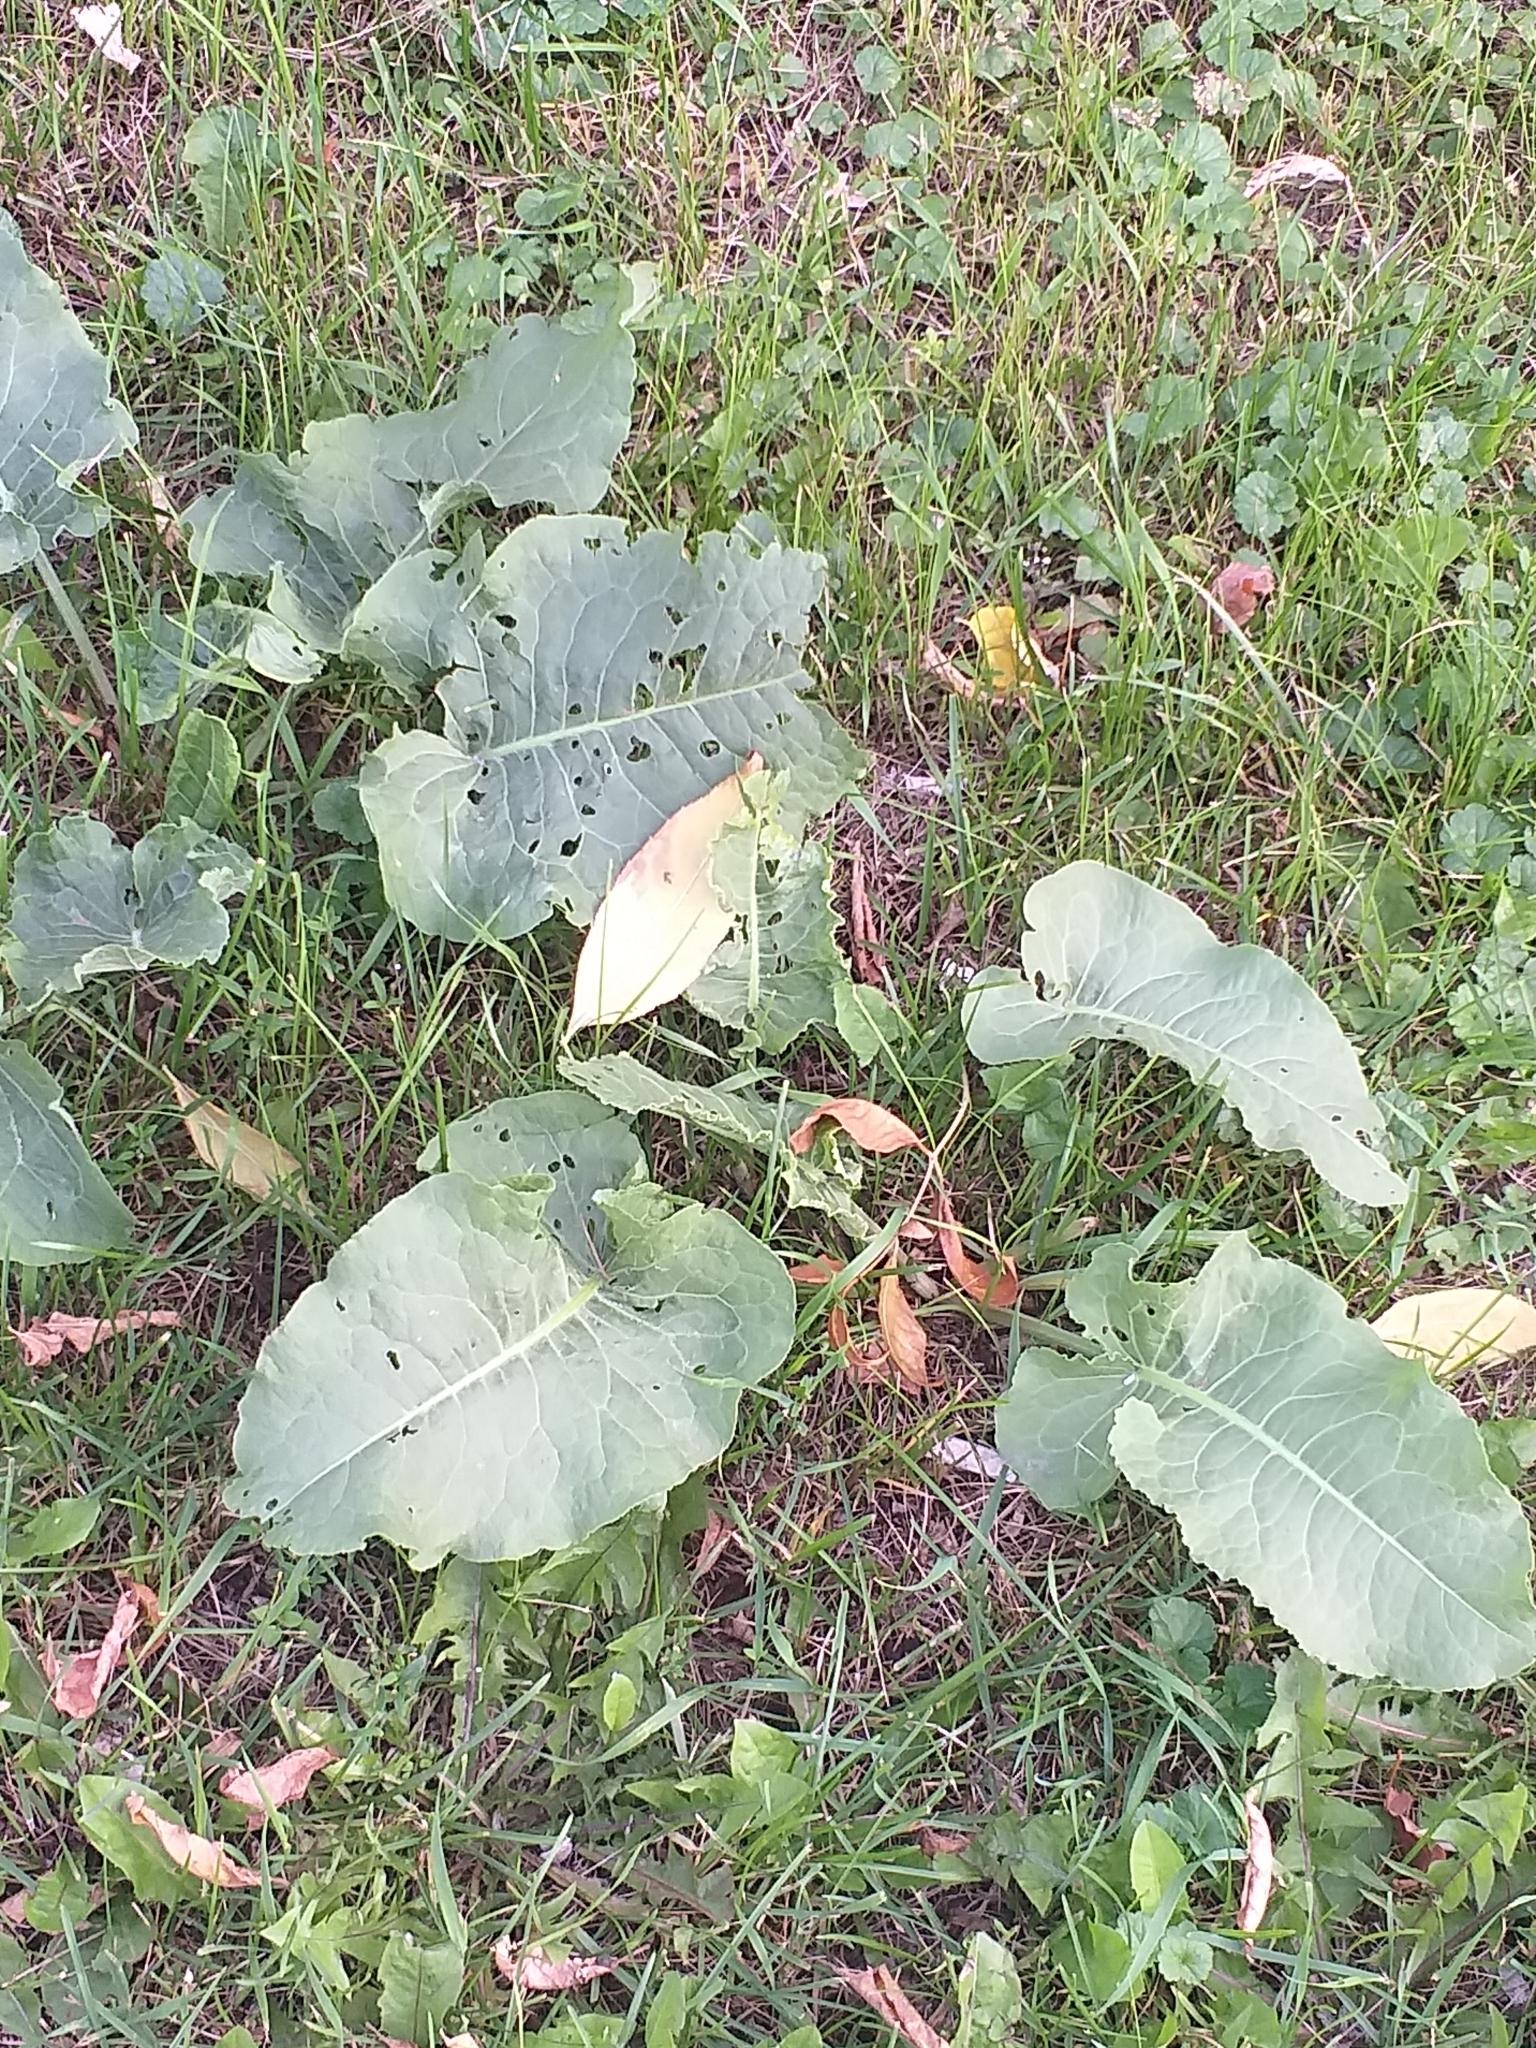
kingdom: Plantae
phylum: Tracheophyta
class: Magnoliopsida
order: Caryophyllales
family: Polygonaceae
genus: Rumex
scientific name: Rumex confertus
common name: Russian dock
